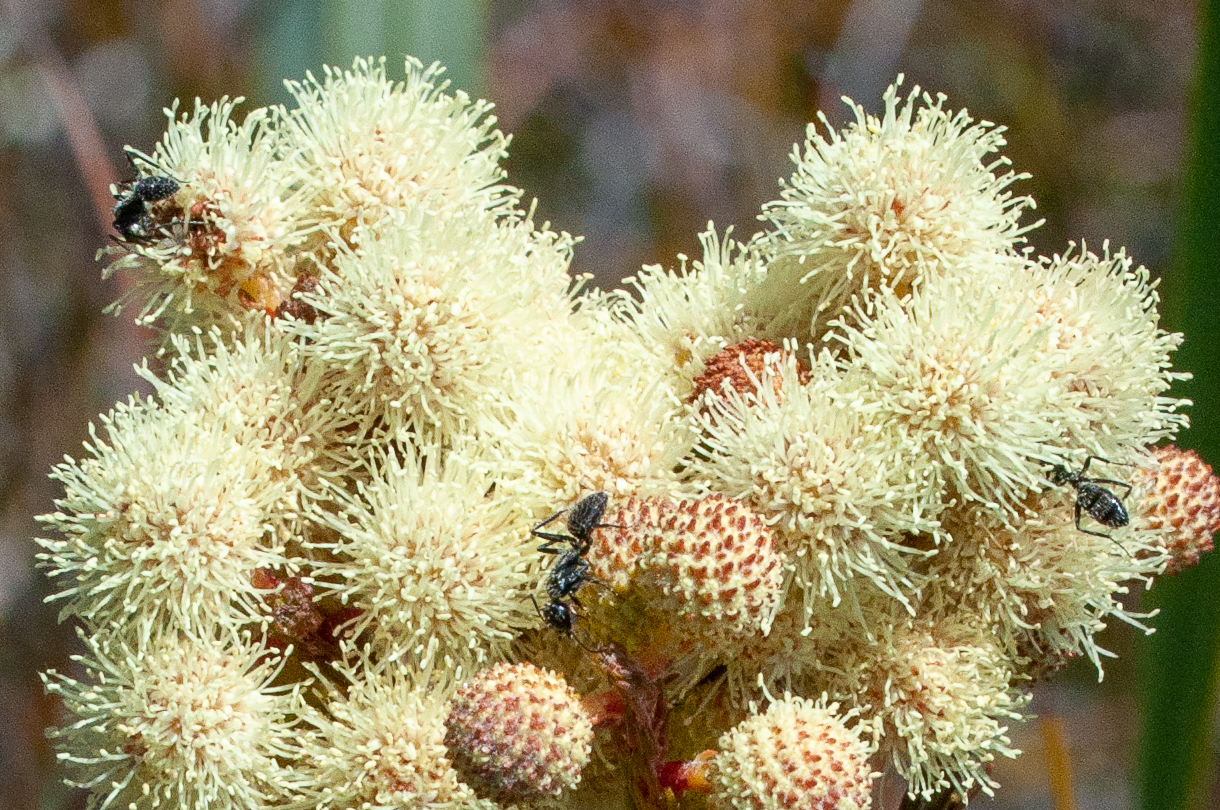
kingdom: Animalia
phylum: Arthropoda
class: Insecta
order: Hymenoptera
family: Formicidae
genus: Camponotus
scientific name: Camponotus niveosetosus
